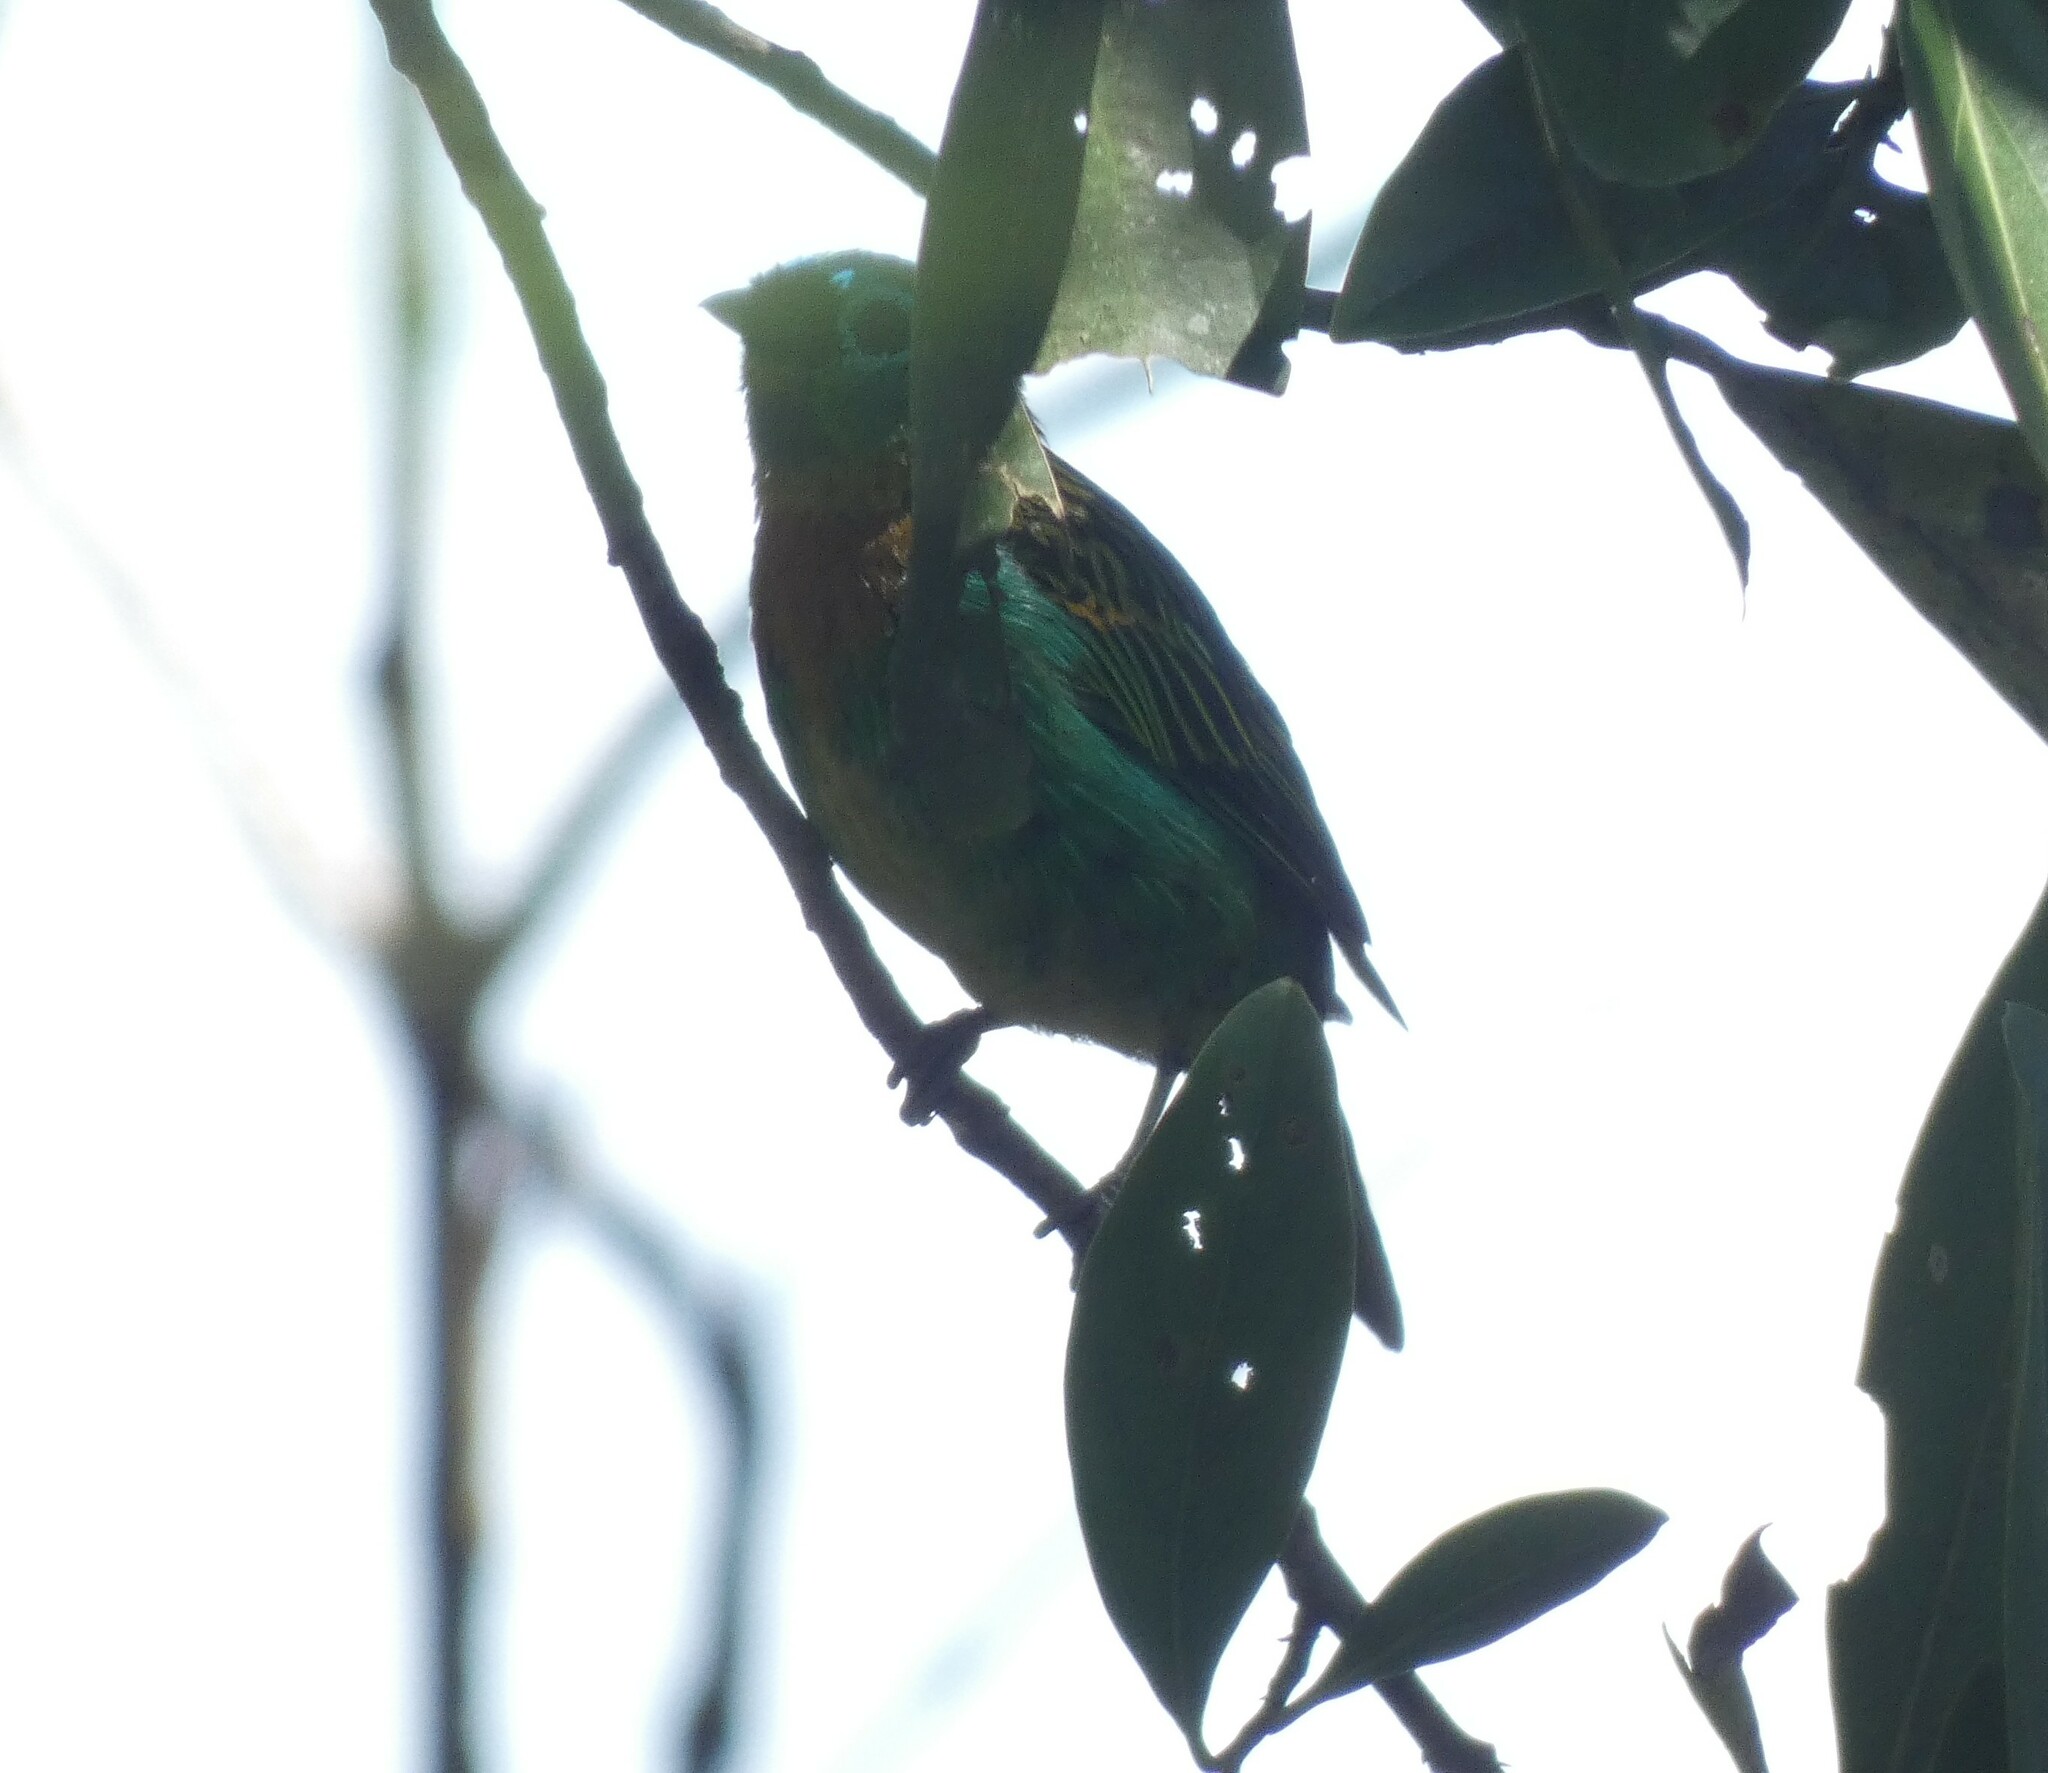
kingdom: Animalia
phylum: Chordata
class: Aves
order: Passeriformes
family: Thraupidae
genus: Tangara
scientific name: Tangara desmaresti
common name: Brassy-breasted tanager
